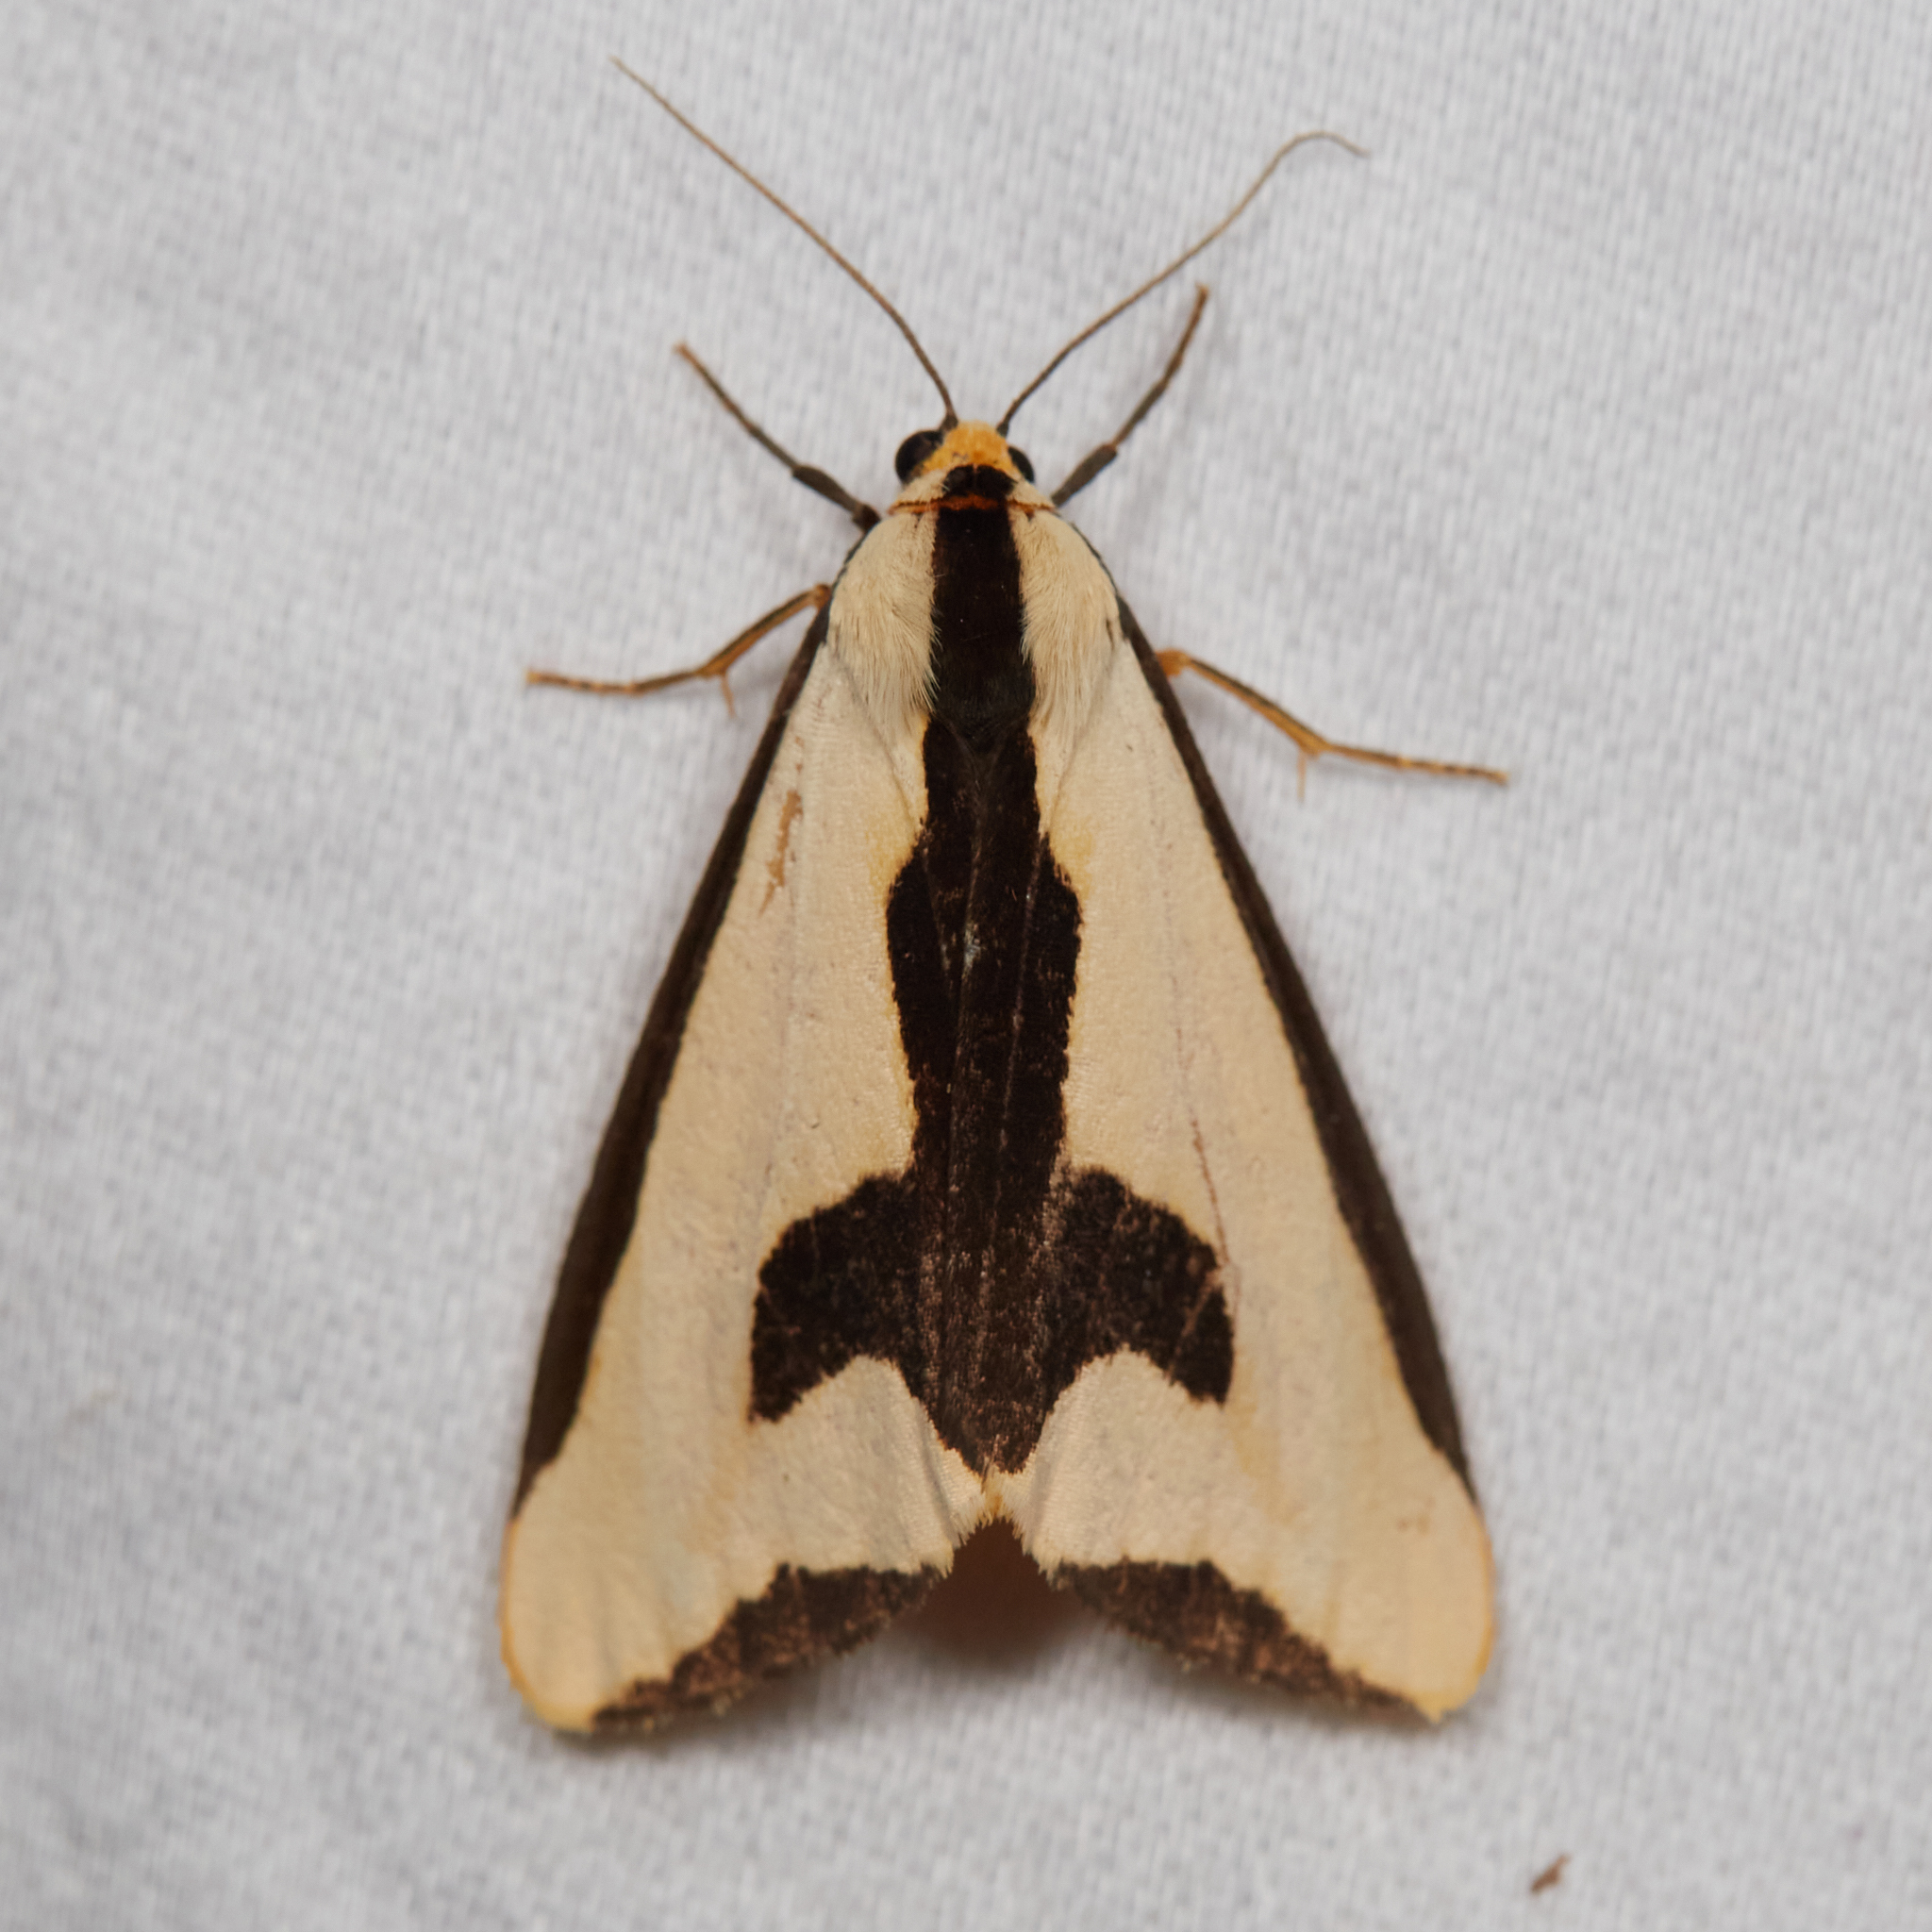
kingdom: Animalia
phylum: Arthropoda
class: Insecta
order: Lepidoptera
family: Erebidae
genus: Haploa
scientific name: Haploa clymene
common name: Clymene moth
